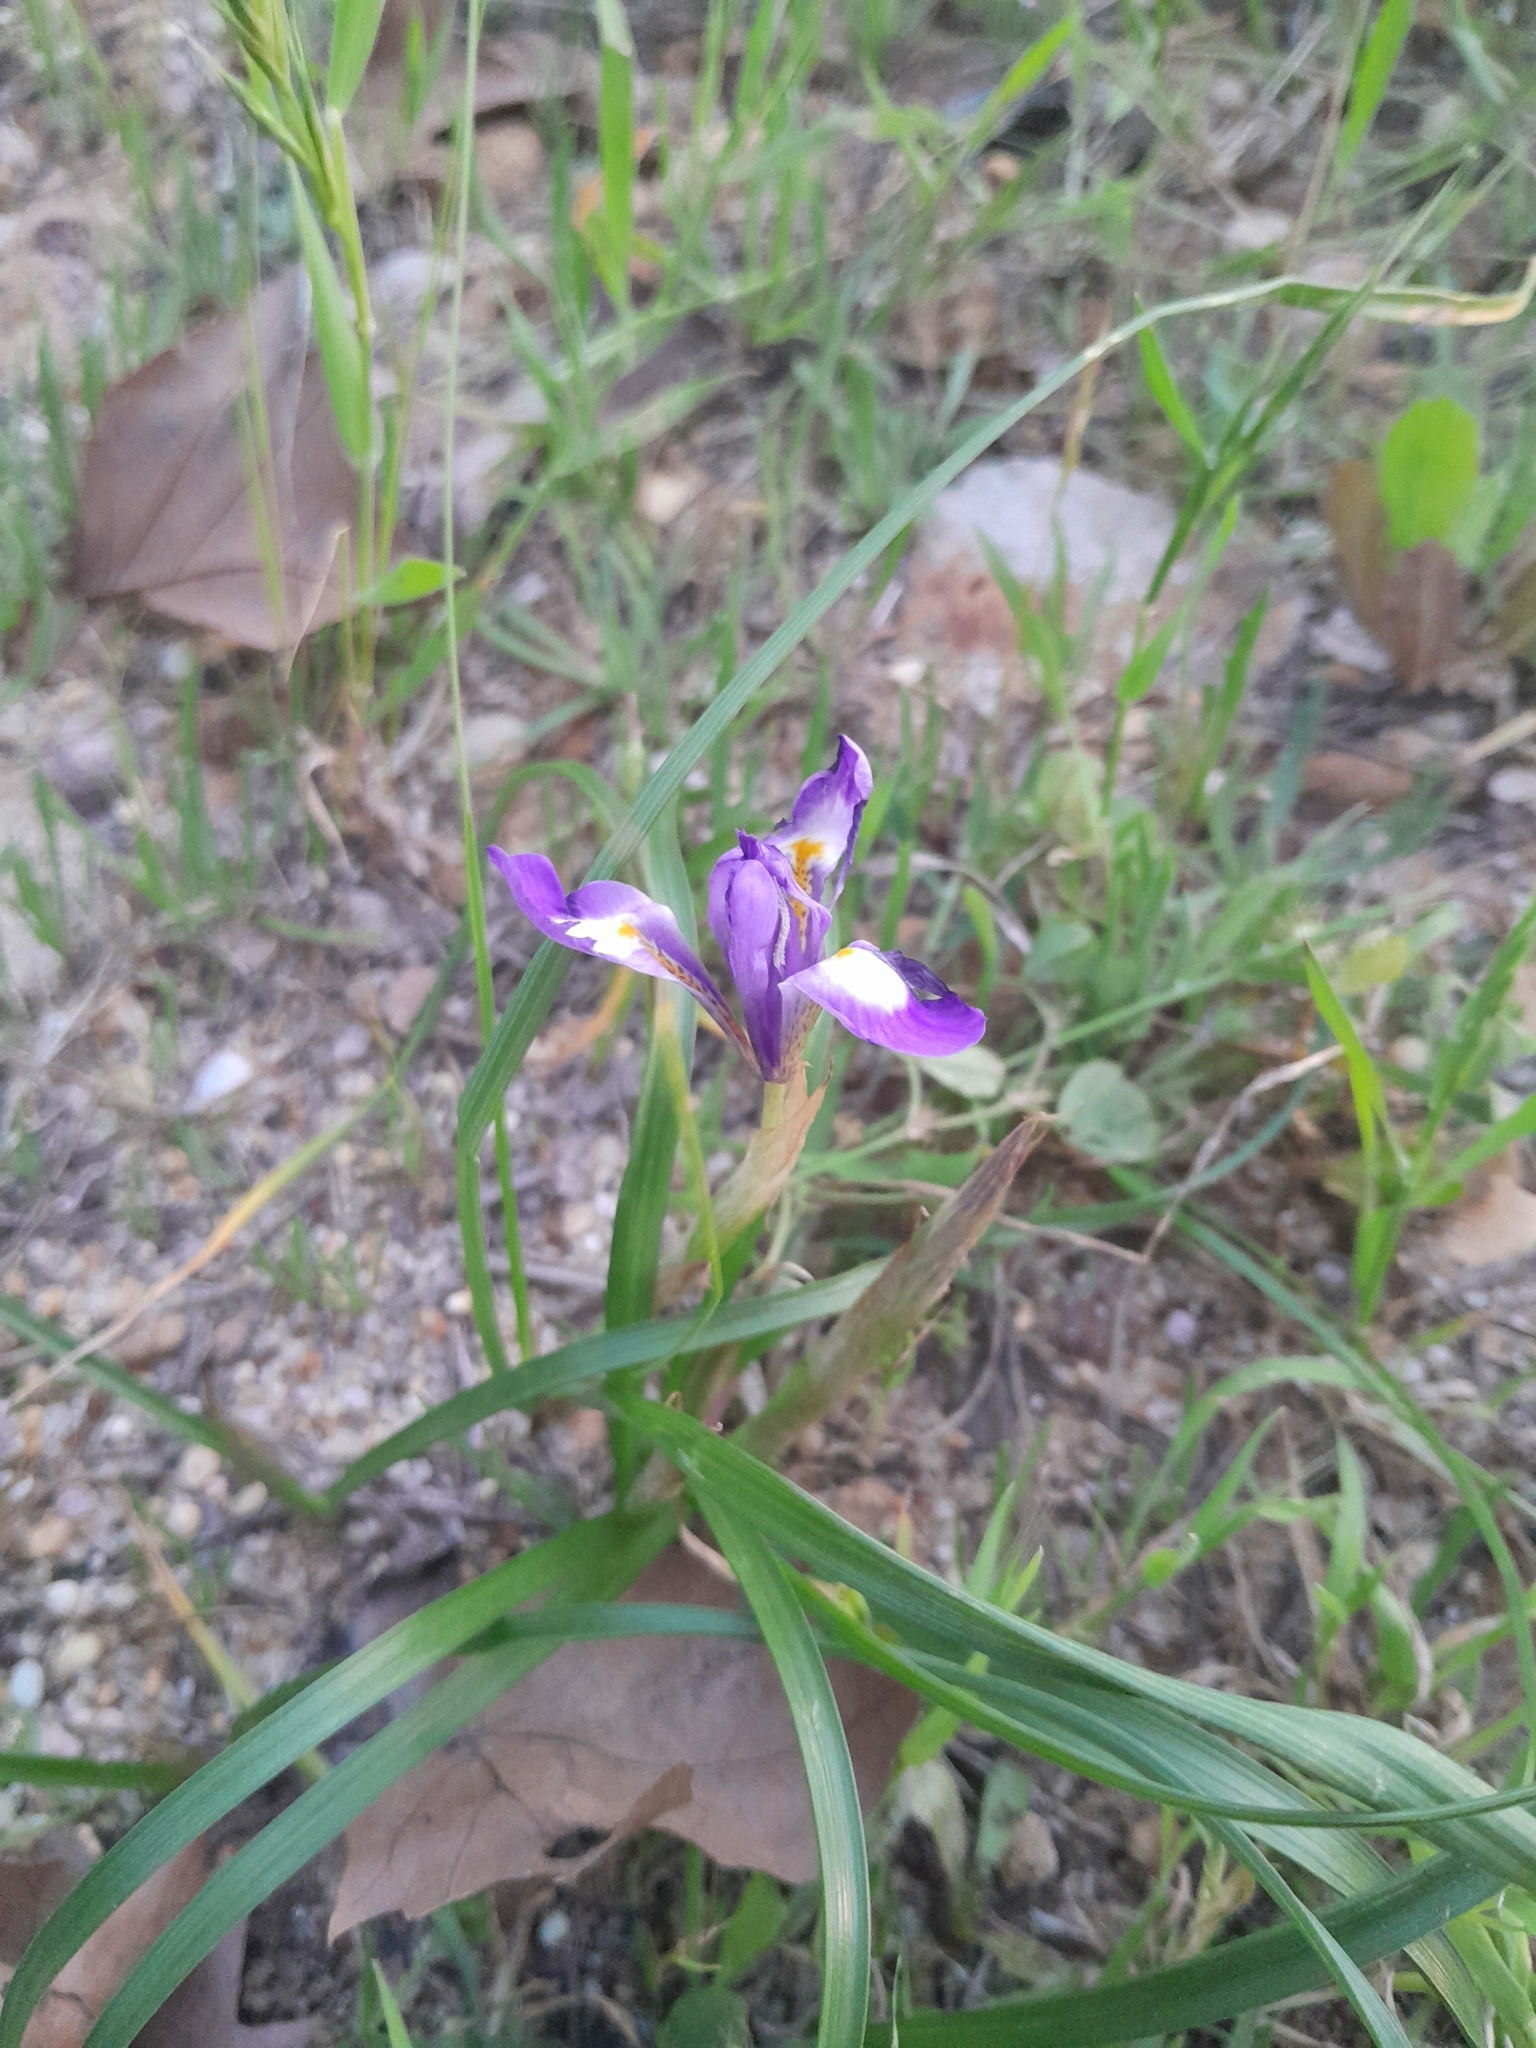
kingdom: Plantae
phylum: Tracheophyta
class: Liliopsida
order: Asparagales
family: Iridaceae
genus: Moraea
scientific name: Moraea sisyrinchium
